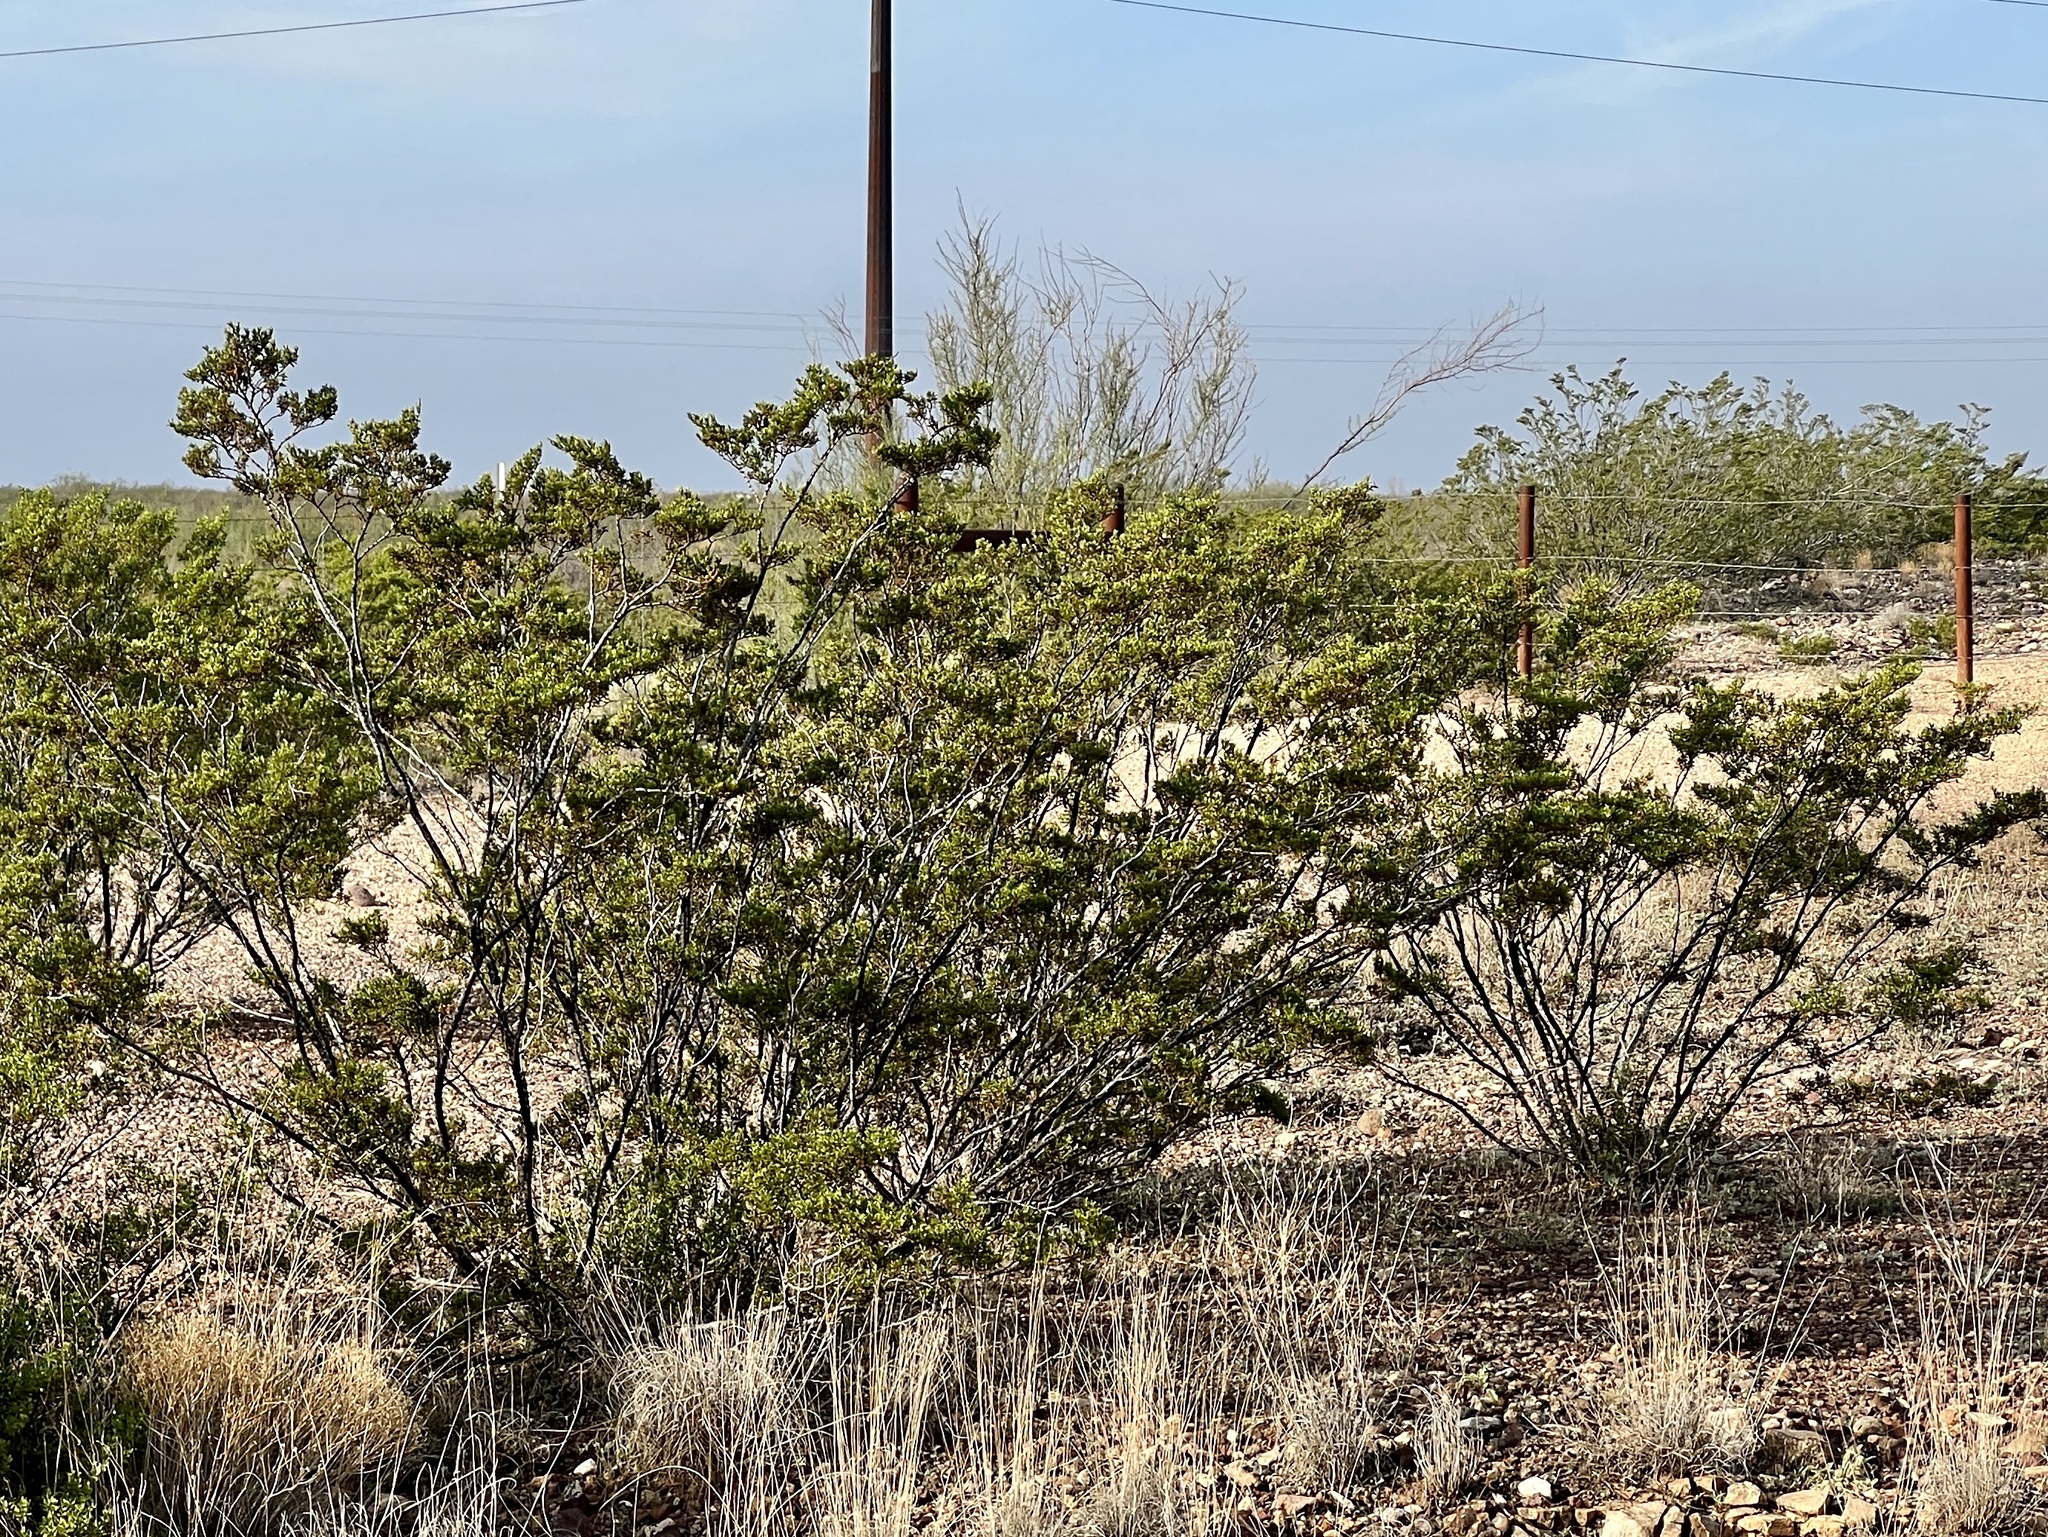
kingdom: Plantae
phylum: Tracheophyta
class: Magnoliopsida
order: Zygophyllales
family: Zygophyllaceae
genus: Larrea
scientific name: Larrea tridentata
